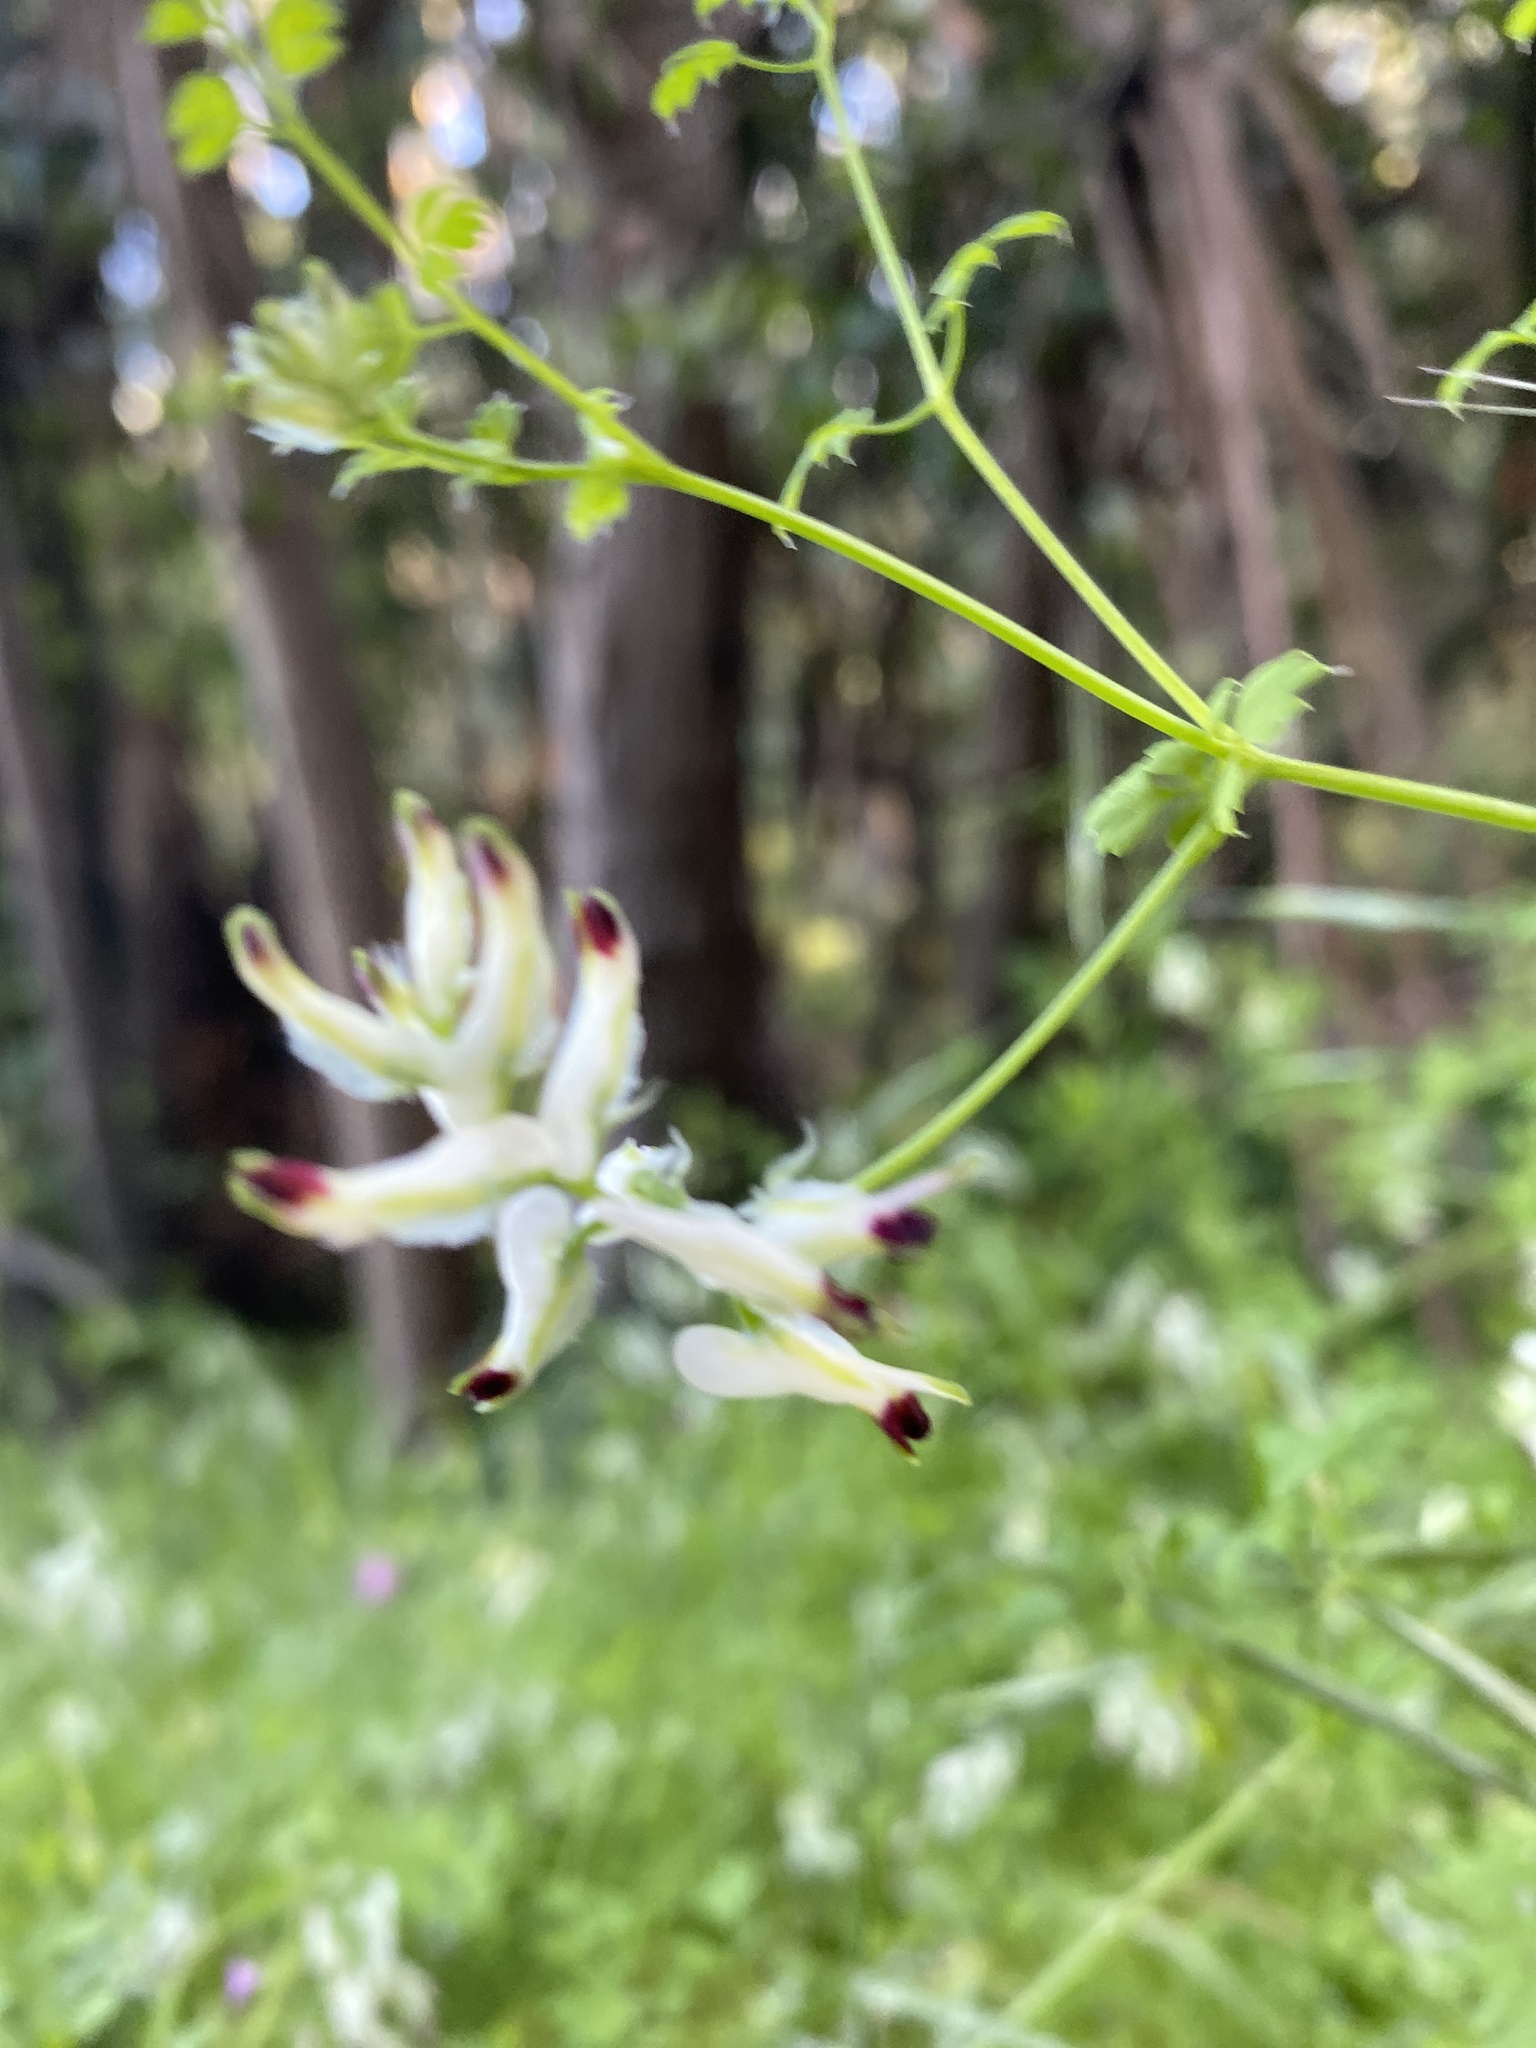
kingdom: Plantae
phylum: Tracheophyta
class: Magnoliopsida
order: Ranunculales
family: Papaveraceae
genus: Fumaria
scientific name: Fumaria capreolata
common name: White ramping-fumitory
